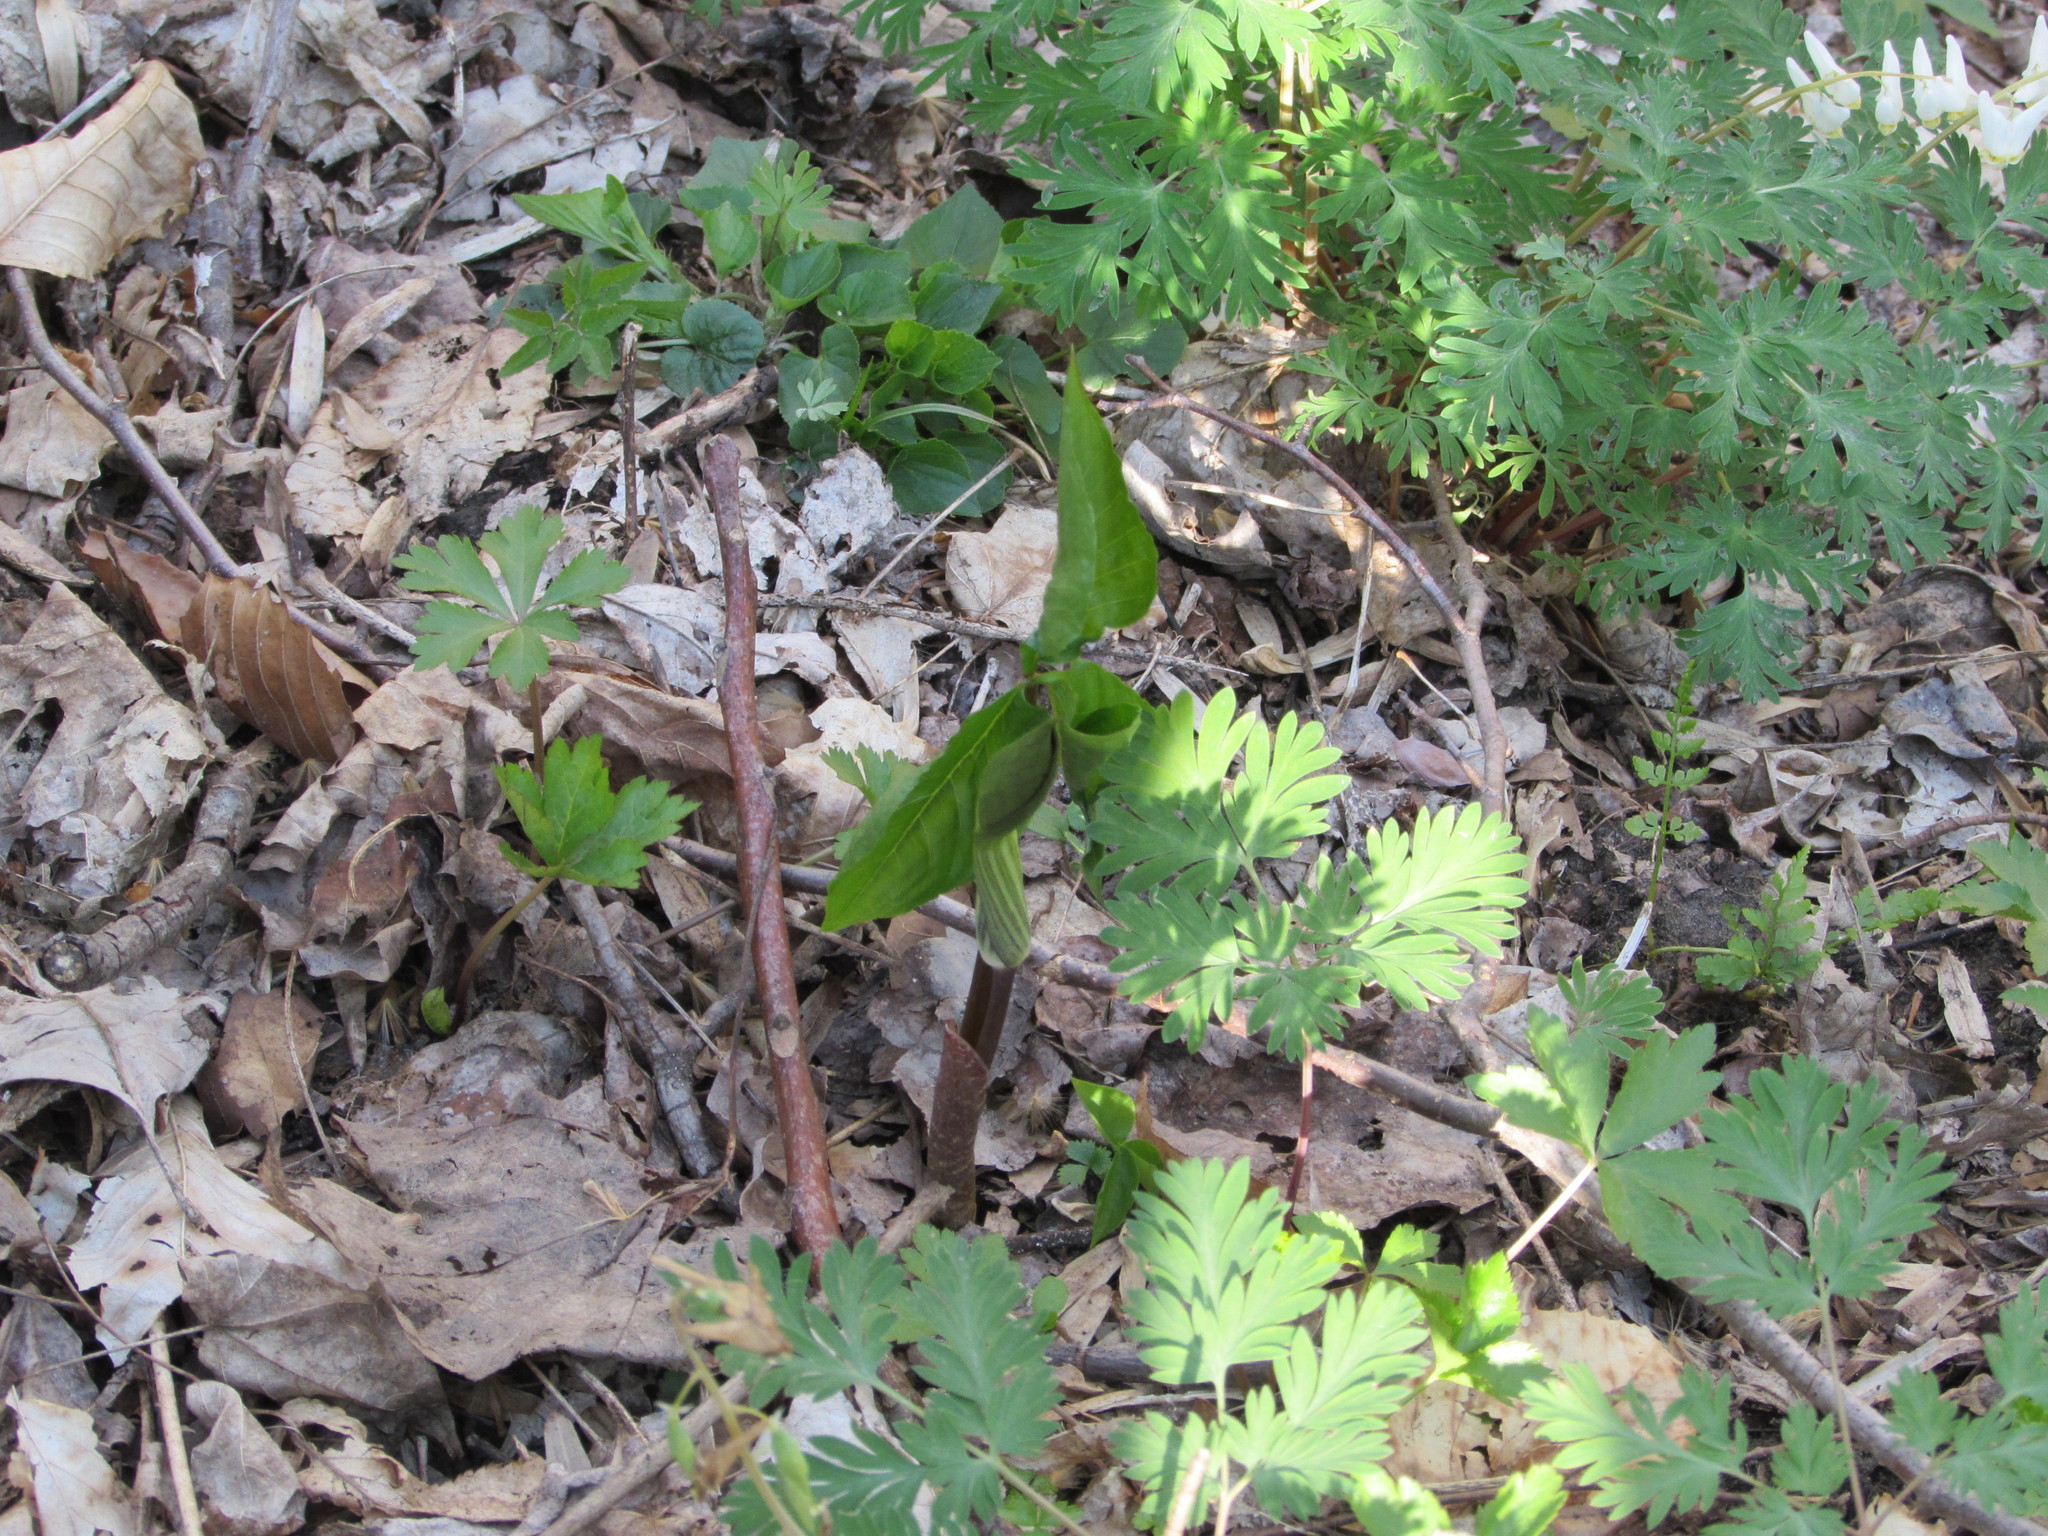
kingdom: Plantae
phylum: Tracheophyta
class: Liliopsida
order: Alismatales
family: Araceae
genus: Arisaema
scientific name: Arisaema triphyllum
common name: Jack-in-the-pulpit
